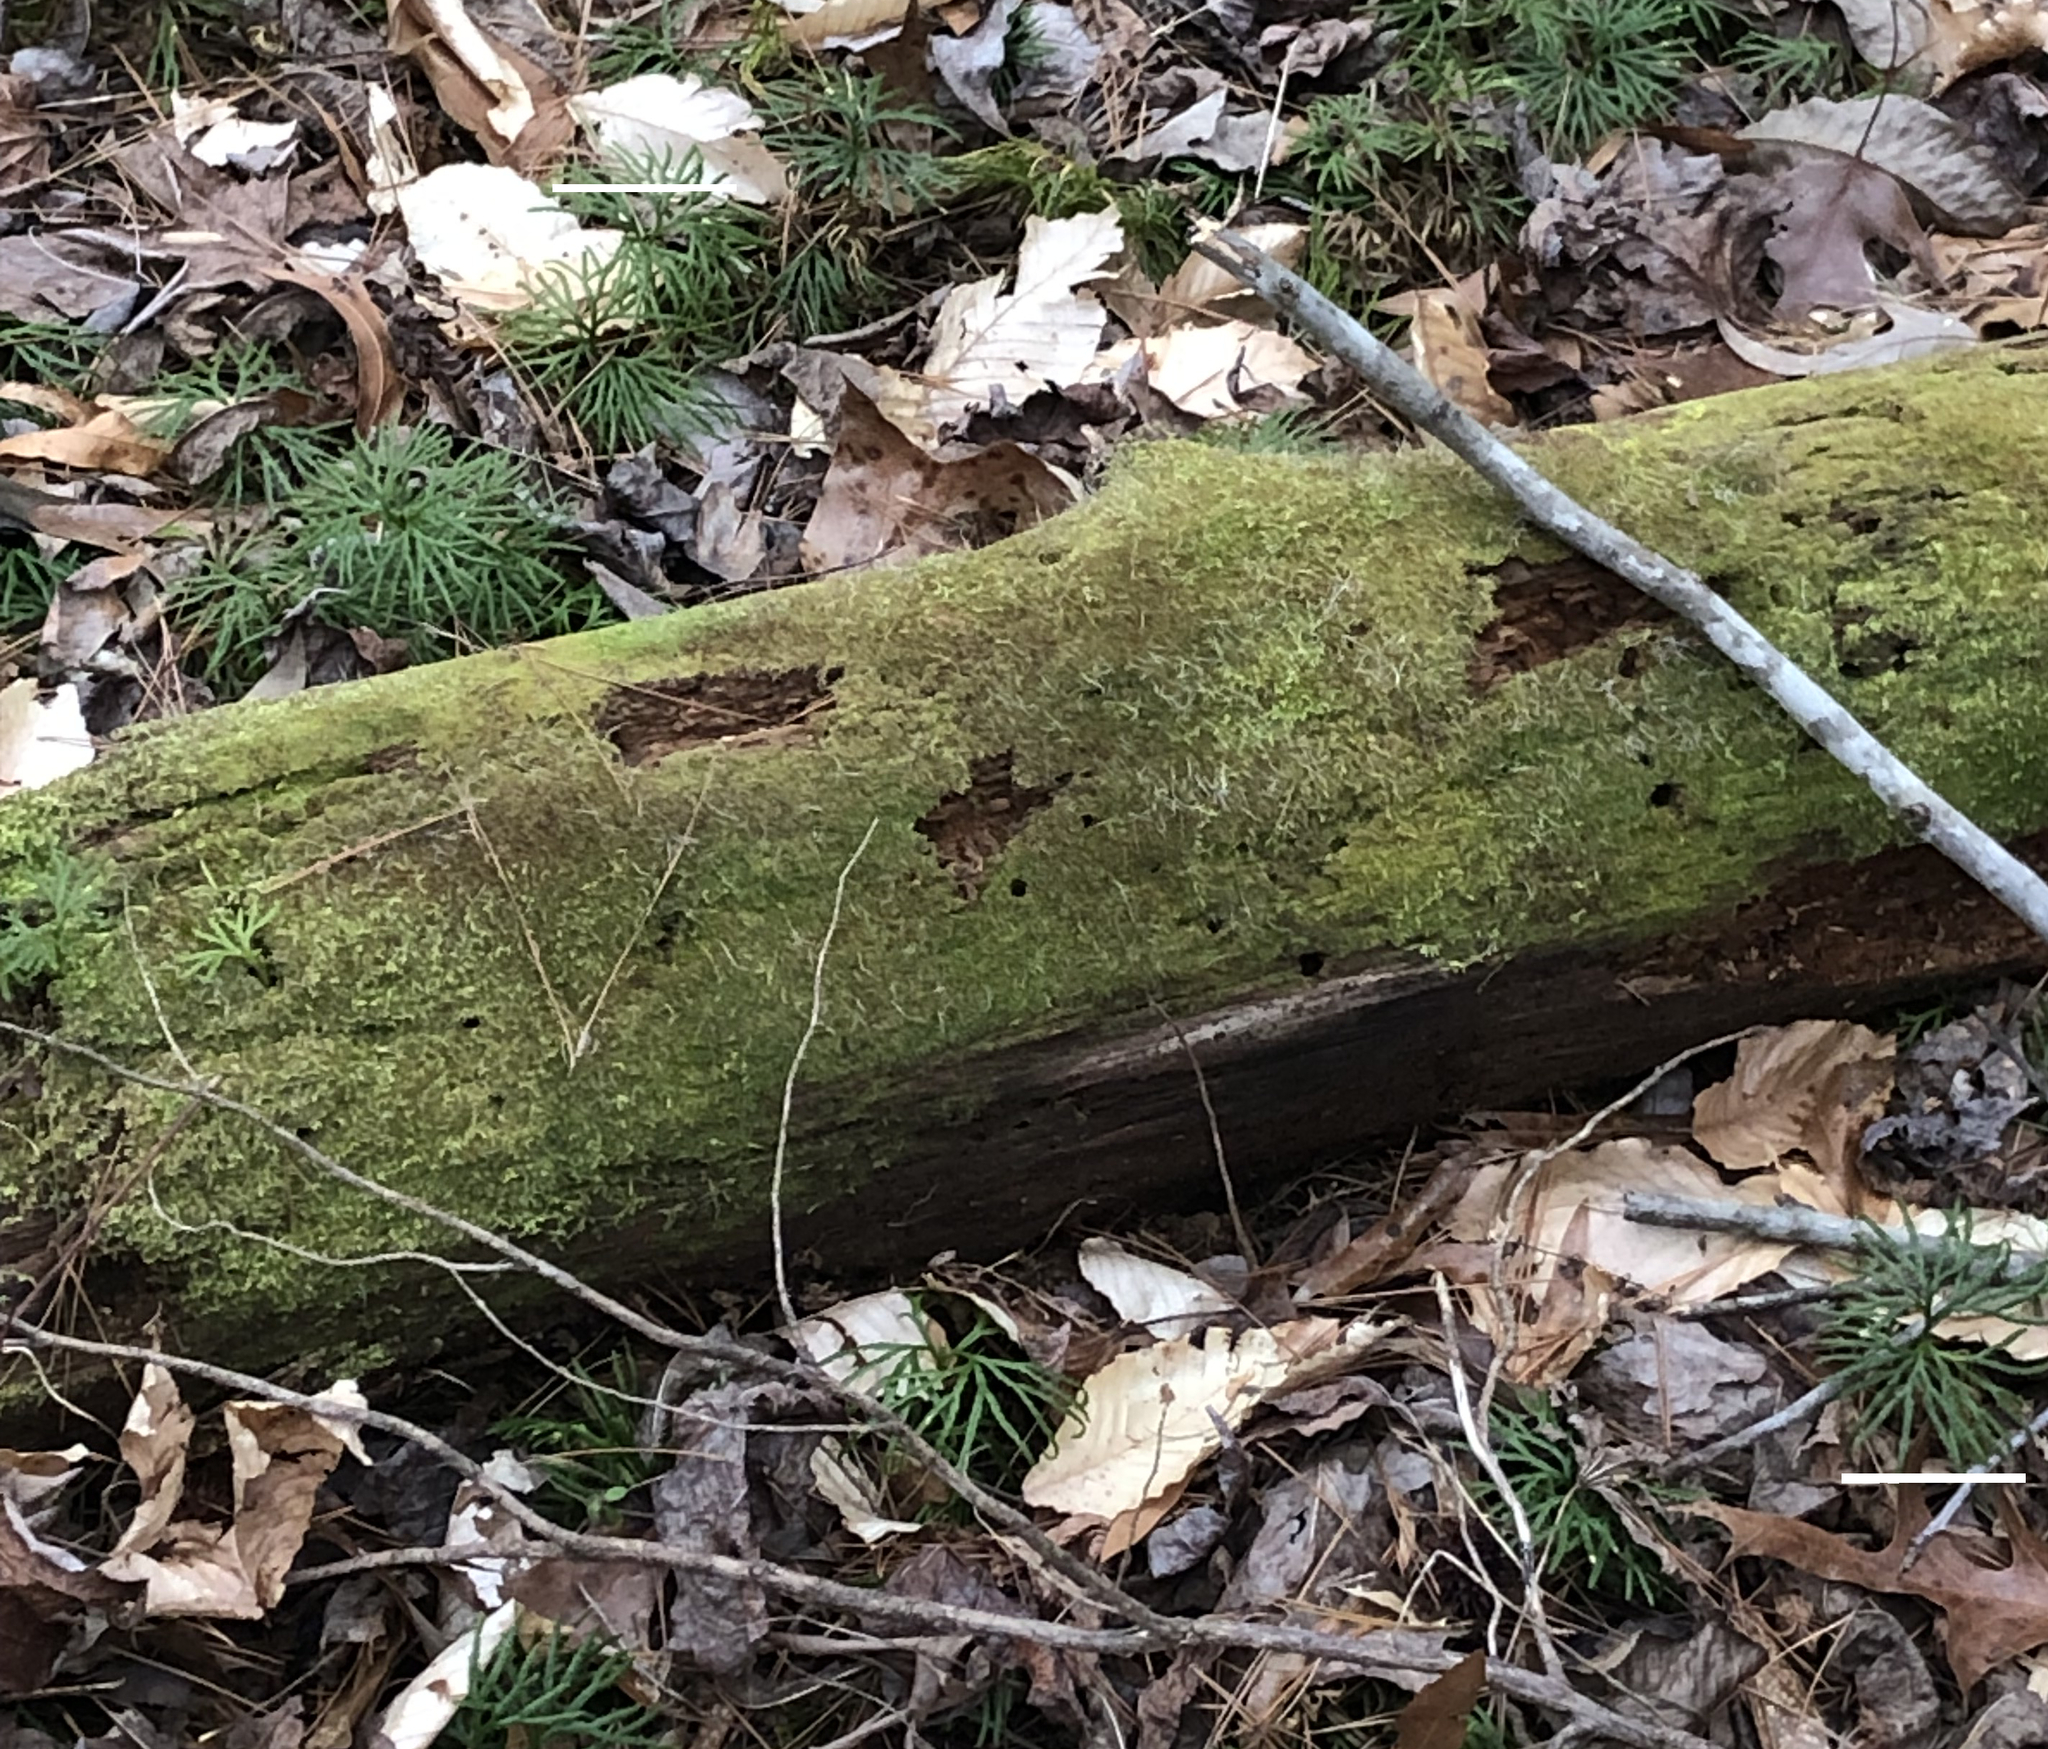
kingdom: Plantae
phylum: Marchantiophyta
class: Jungermanniopsida
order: Jungermanniales
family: Cephaloziaceae
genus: Nowellia
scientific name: Nowellia curvifolia
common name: Wood rustwort
